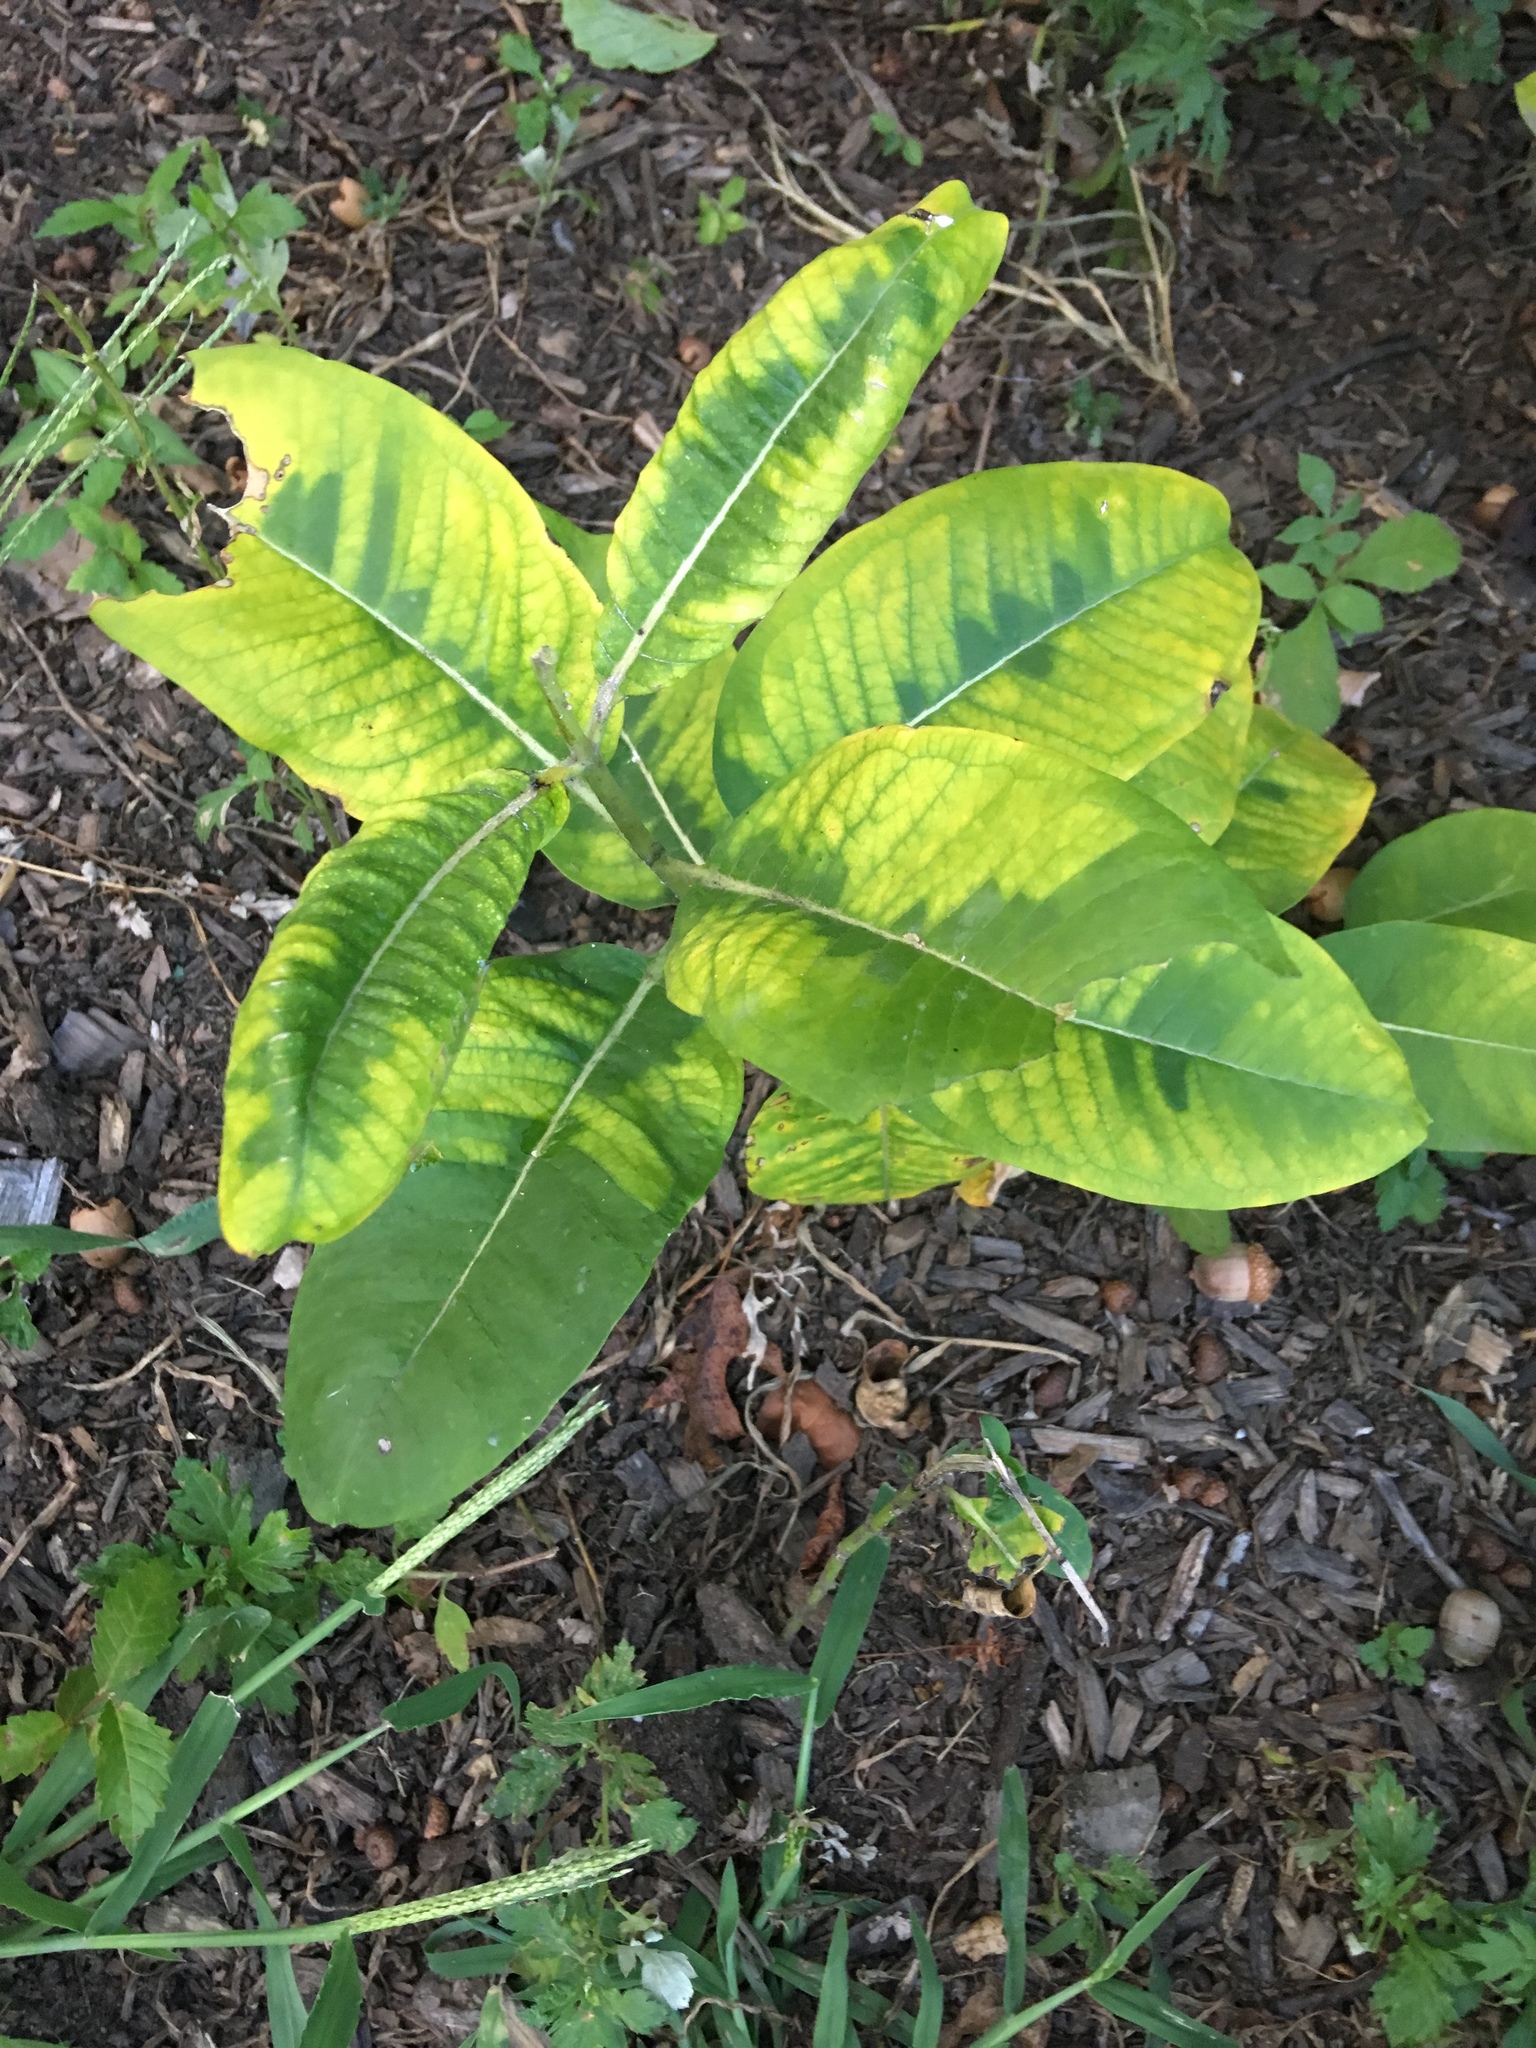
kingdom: Plantae
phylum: Tracheophyta
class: Magnoliopsida
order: Gentianales
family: Apocynaceae
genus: Asclepias
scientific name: Asclepias syriaca
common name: Common milkweed
